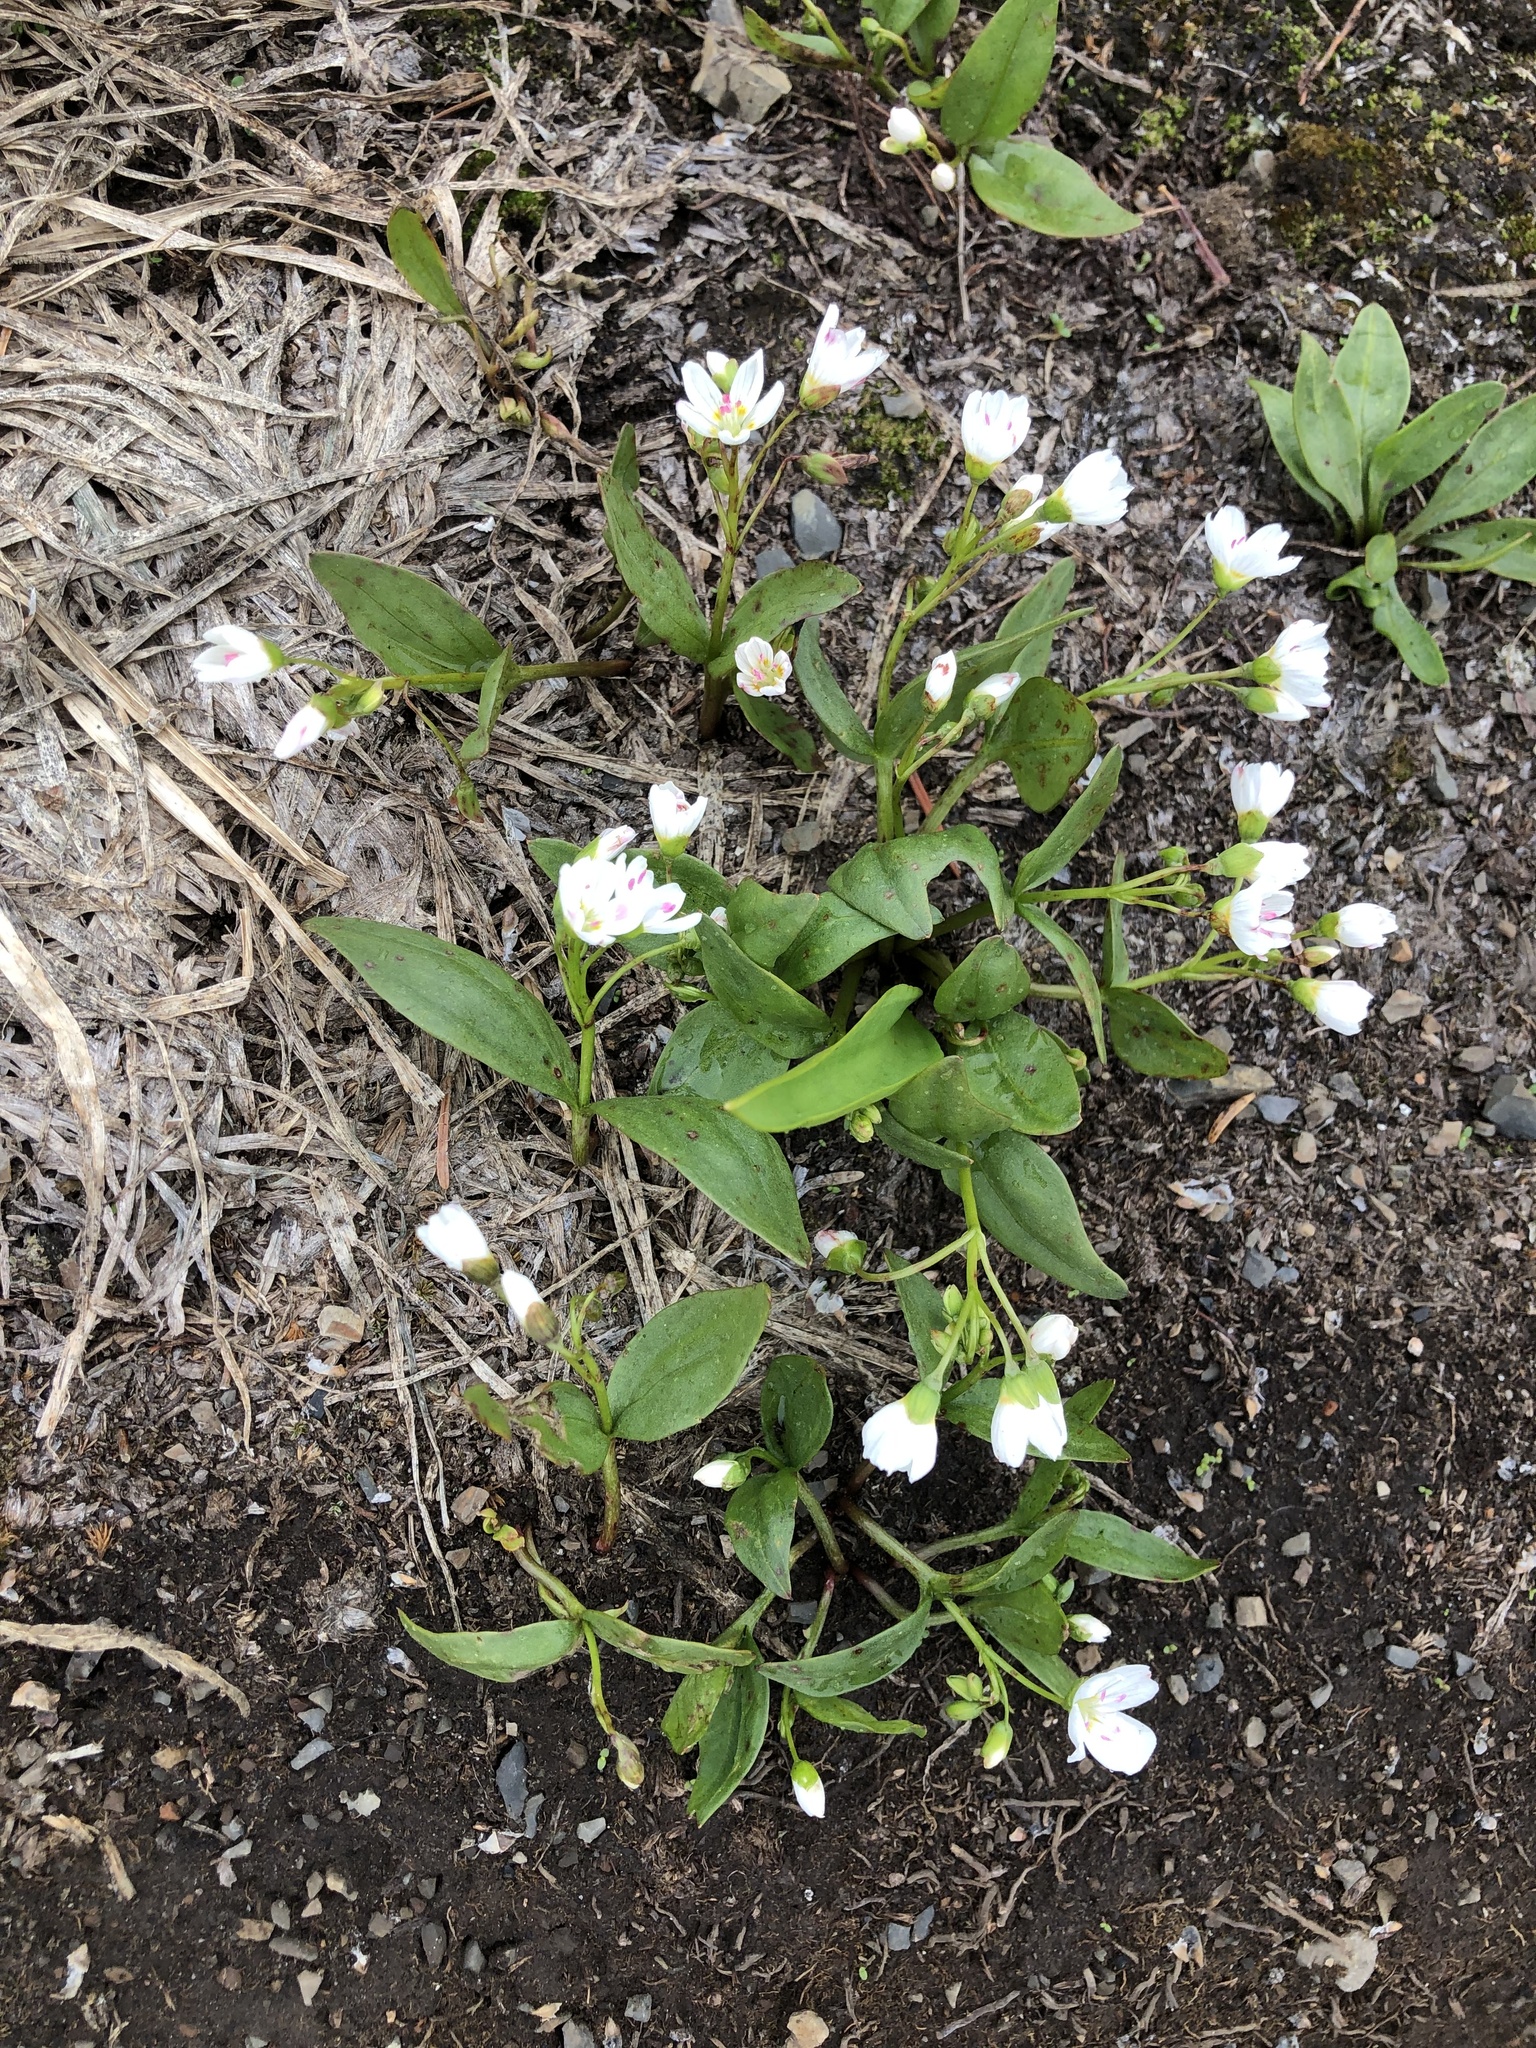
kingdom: Plantae
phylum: Tracheophyta
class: Magnoliopsida
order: Caryophyllales
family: Montiaceae
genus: Claytonia
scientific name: Claytonia lanceolata
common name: Western spring-beauty
